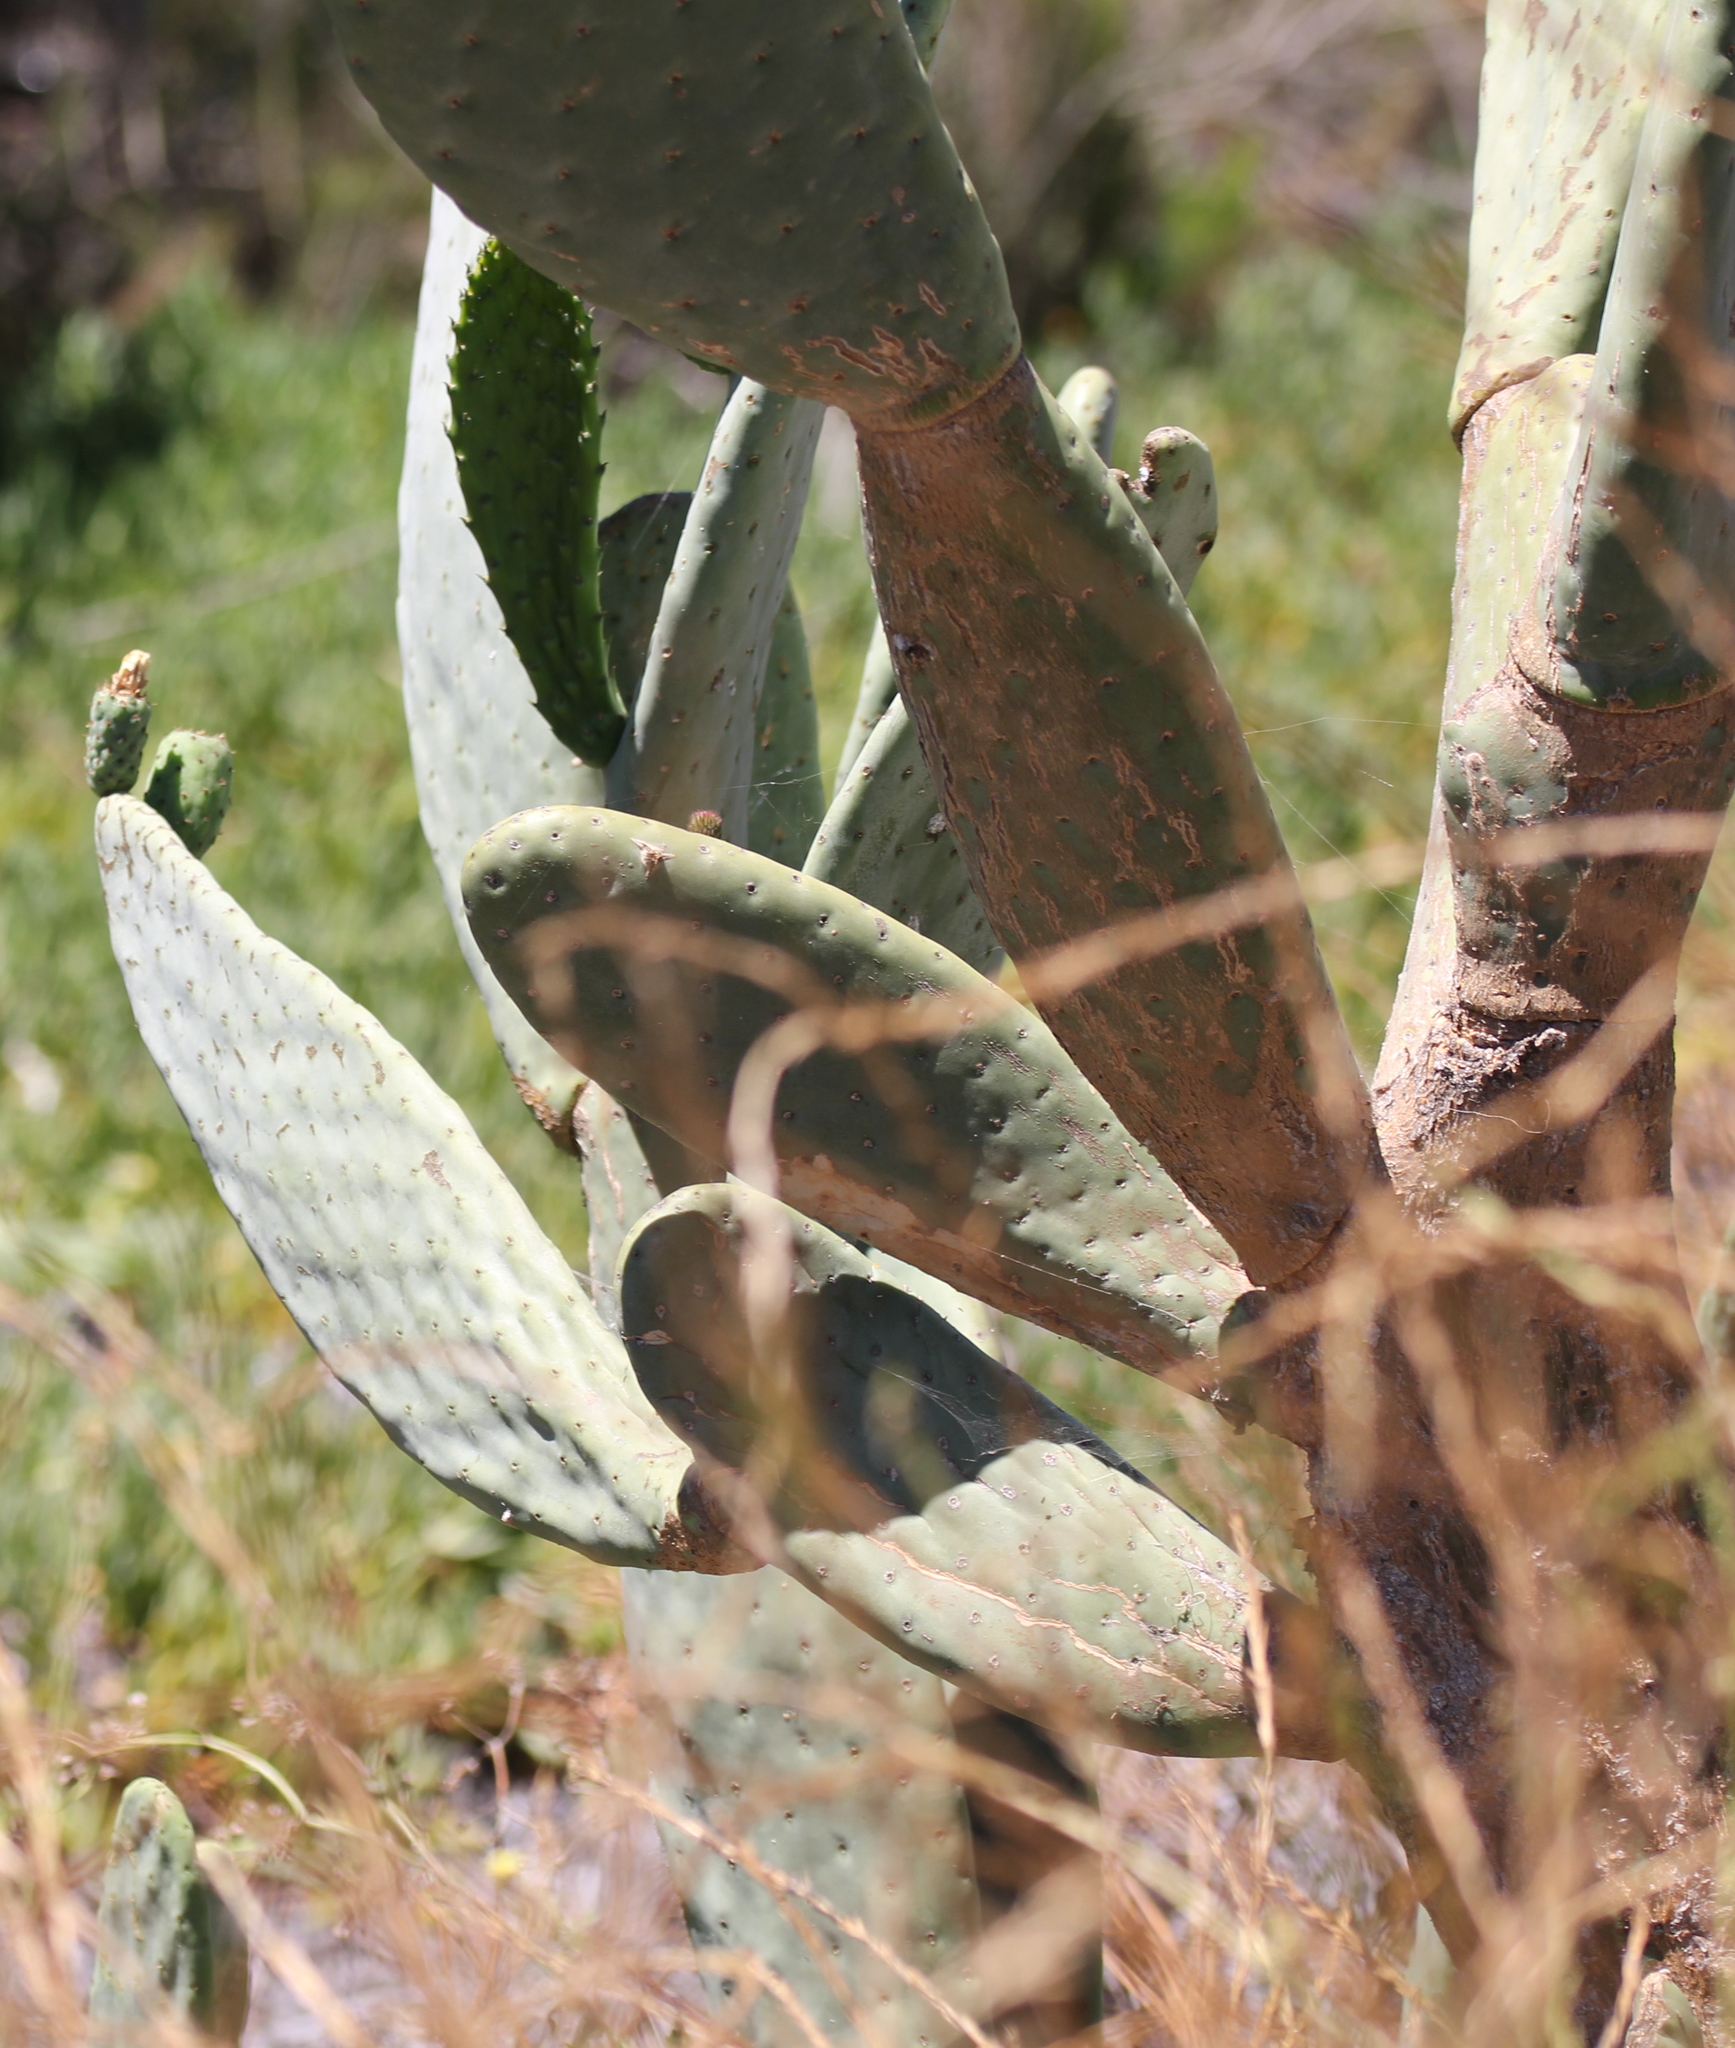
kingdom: Plantae
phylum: Tracheophyta
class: Magnoliopsida
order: Caryophyllales
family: Cactaceae
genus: Opuntia
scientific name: Opuntia ficus-indica
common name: Barbary fig
